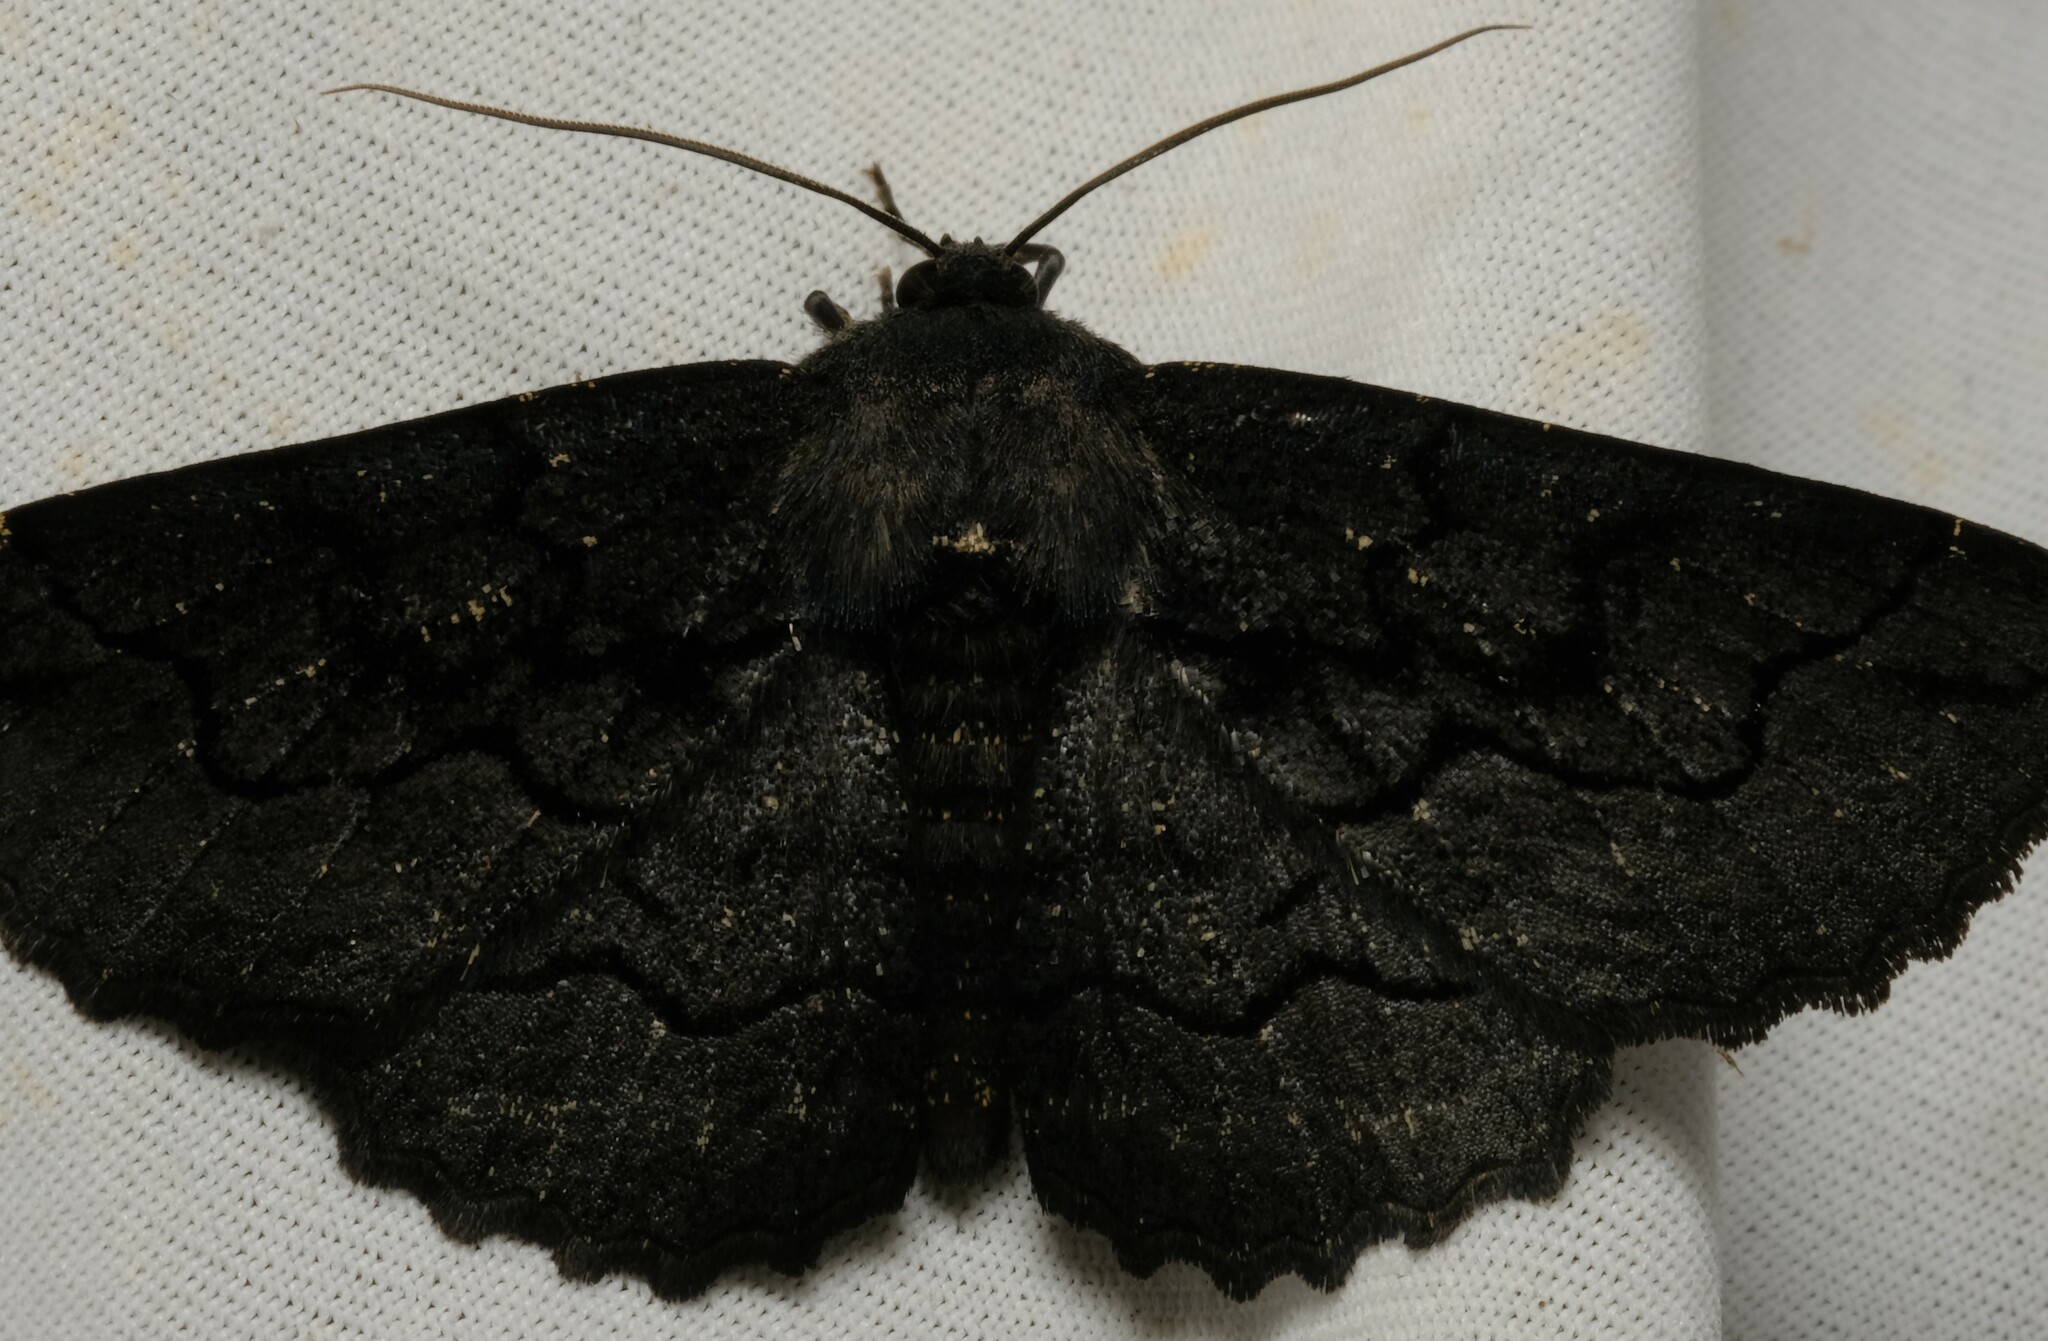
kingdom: Animalia
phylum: Arthropoda
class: Insecta
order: Lepidoptera
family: Geometridae
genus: Melanodes
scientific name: Melanodes anthracitaria
